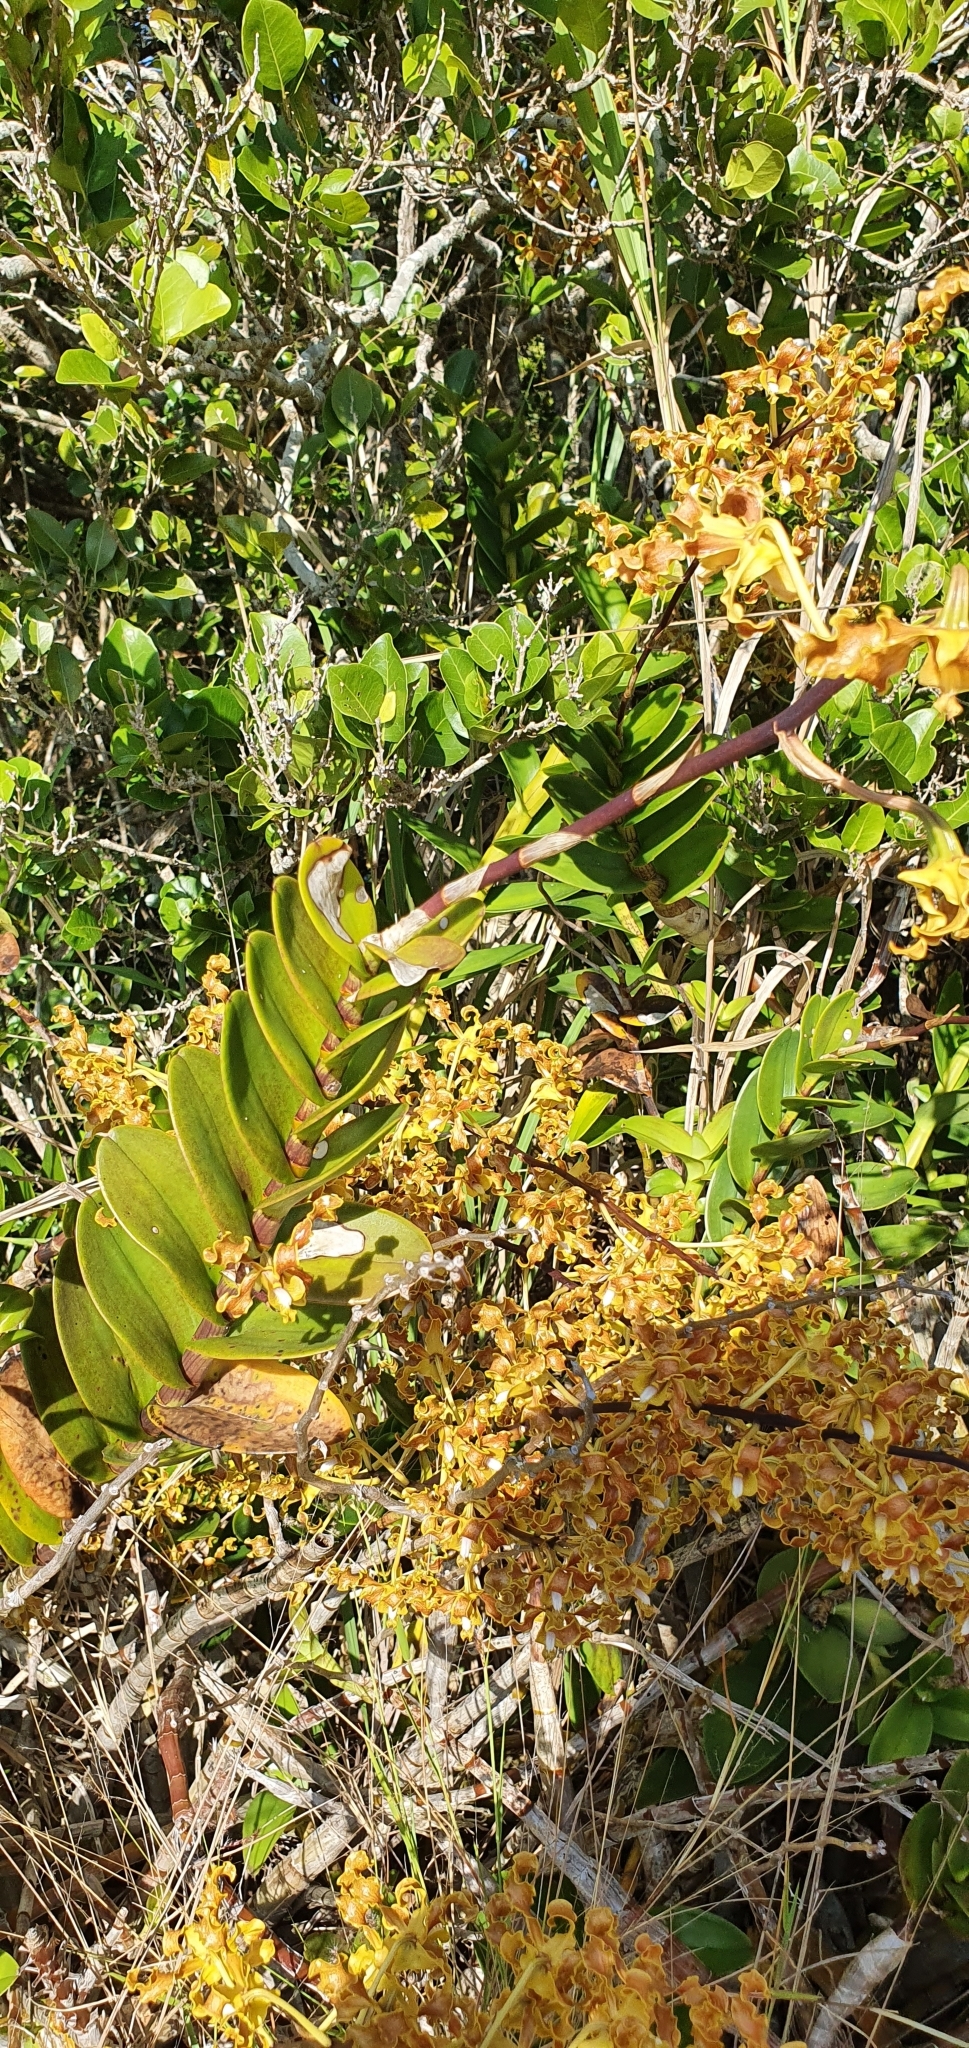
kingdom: Plantae
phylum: Tracheophyta
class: Liliopsida
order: Asparagales
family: Orchidaceae
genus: Dendrobium
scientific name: Dendrobium discolor
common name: Golden antler orchid
